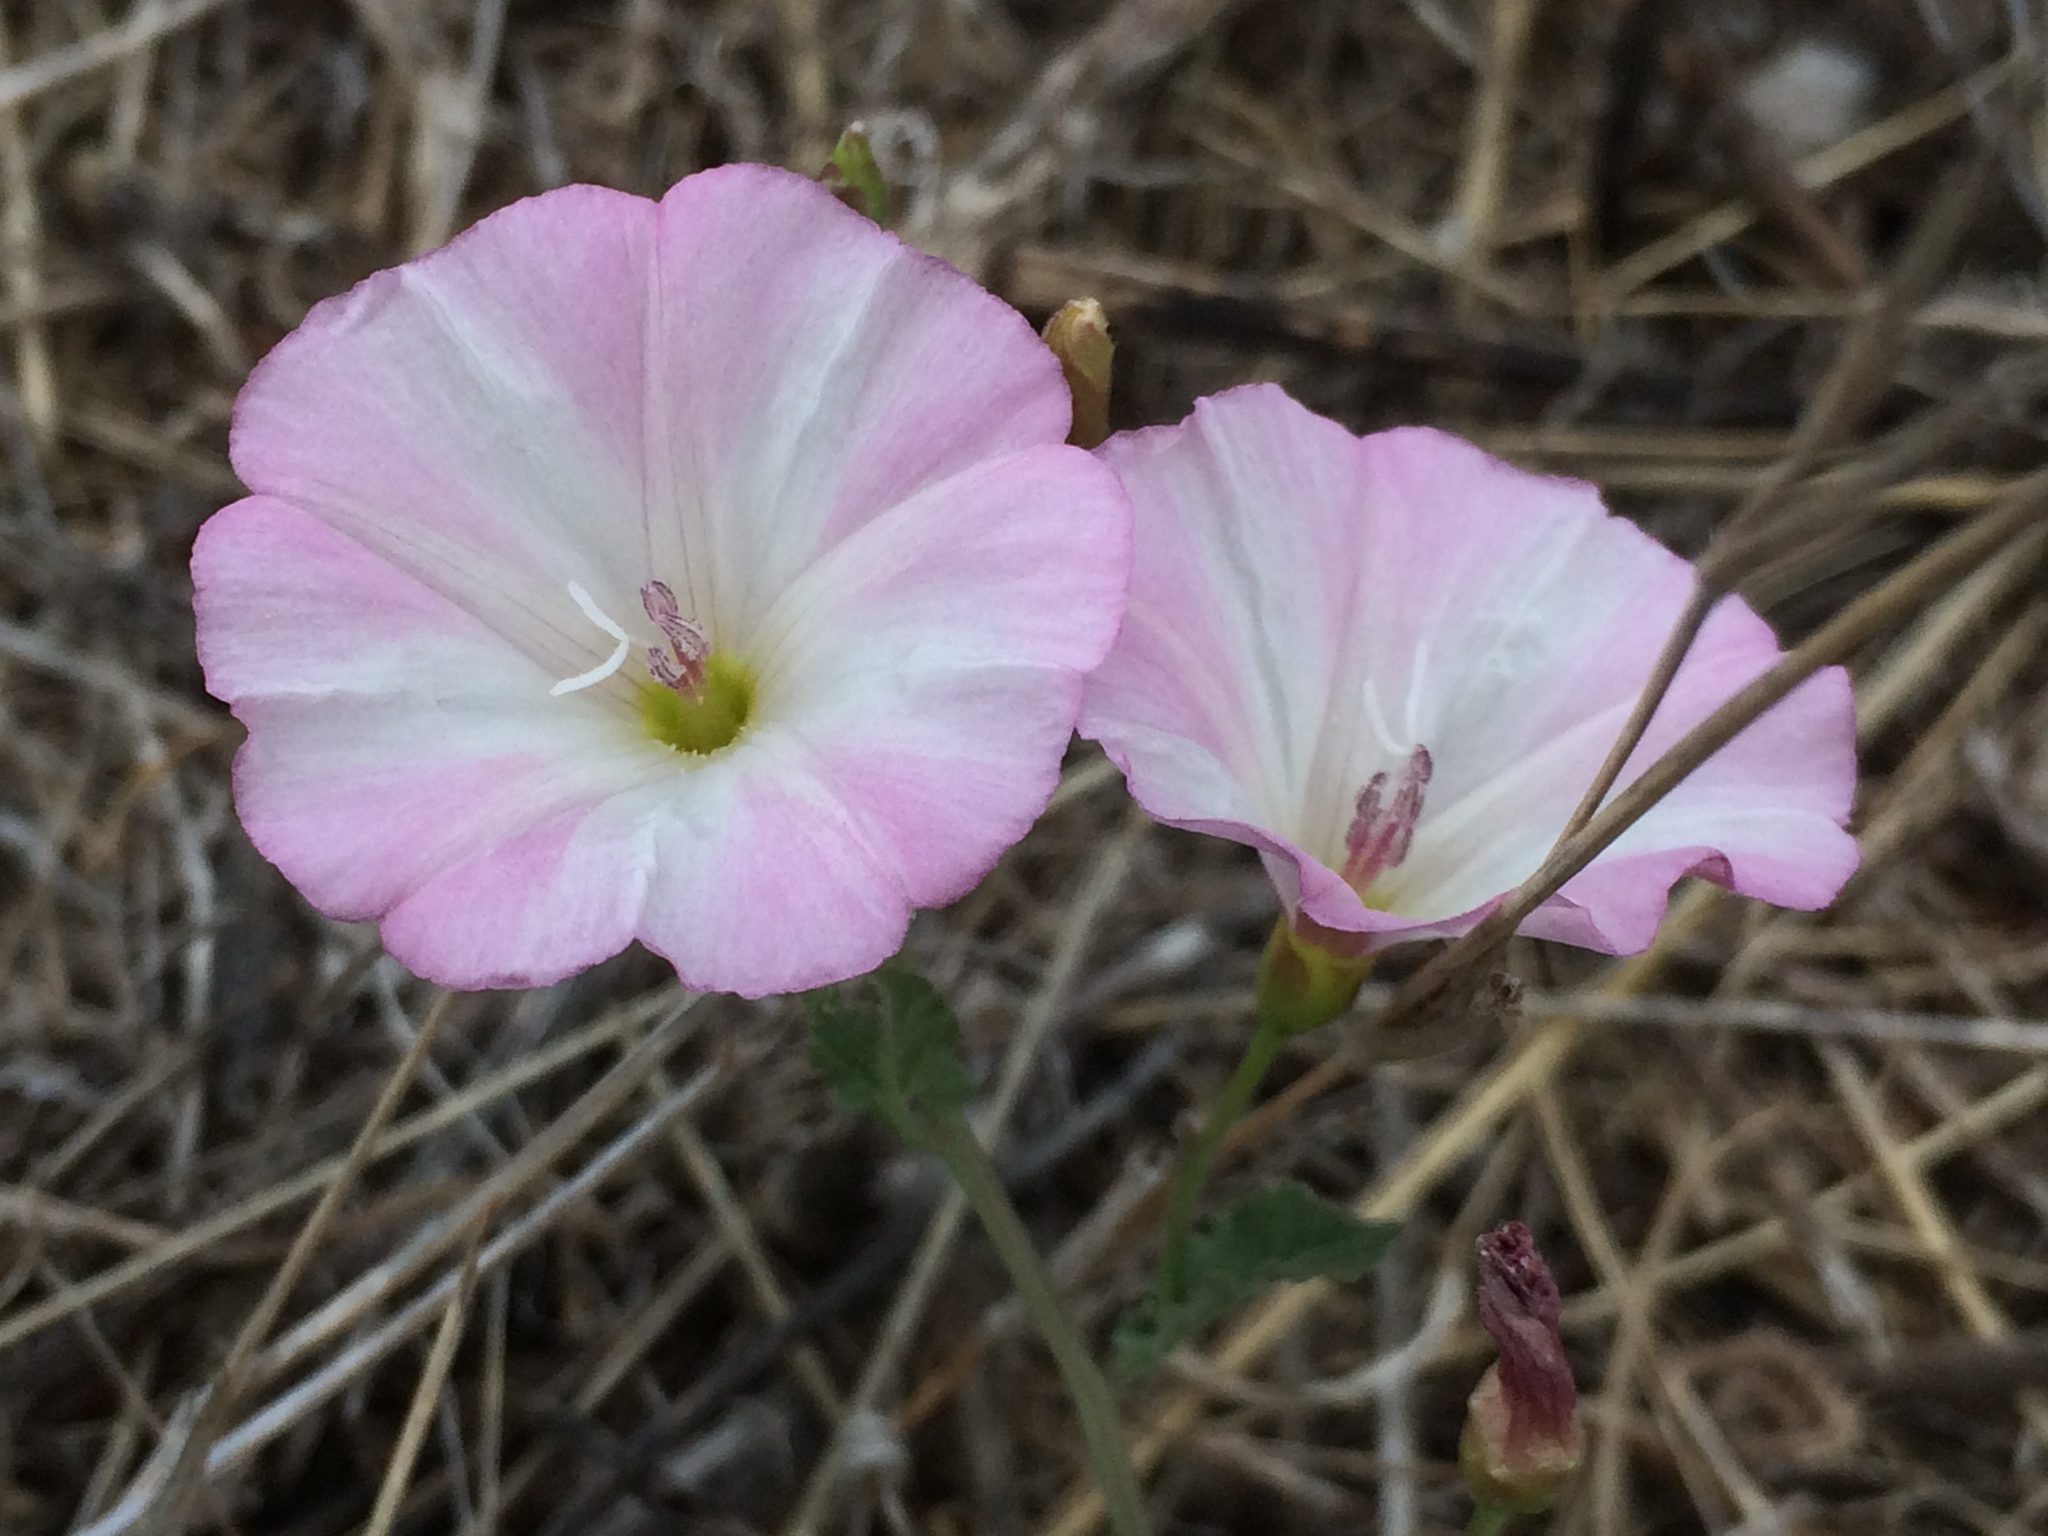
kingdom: Plantae
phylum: Tracheophyta
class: Magnoliopsida
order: Solanales
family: Convolvulaceae
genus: Convolvulus
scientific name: Convolvulus arvensis
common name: Field bindweed
